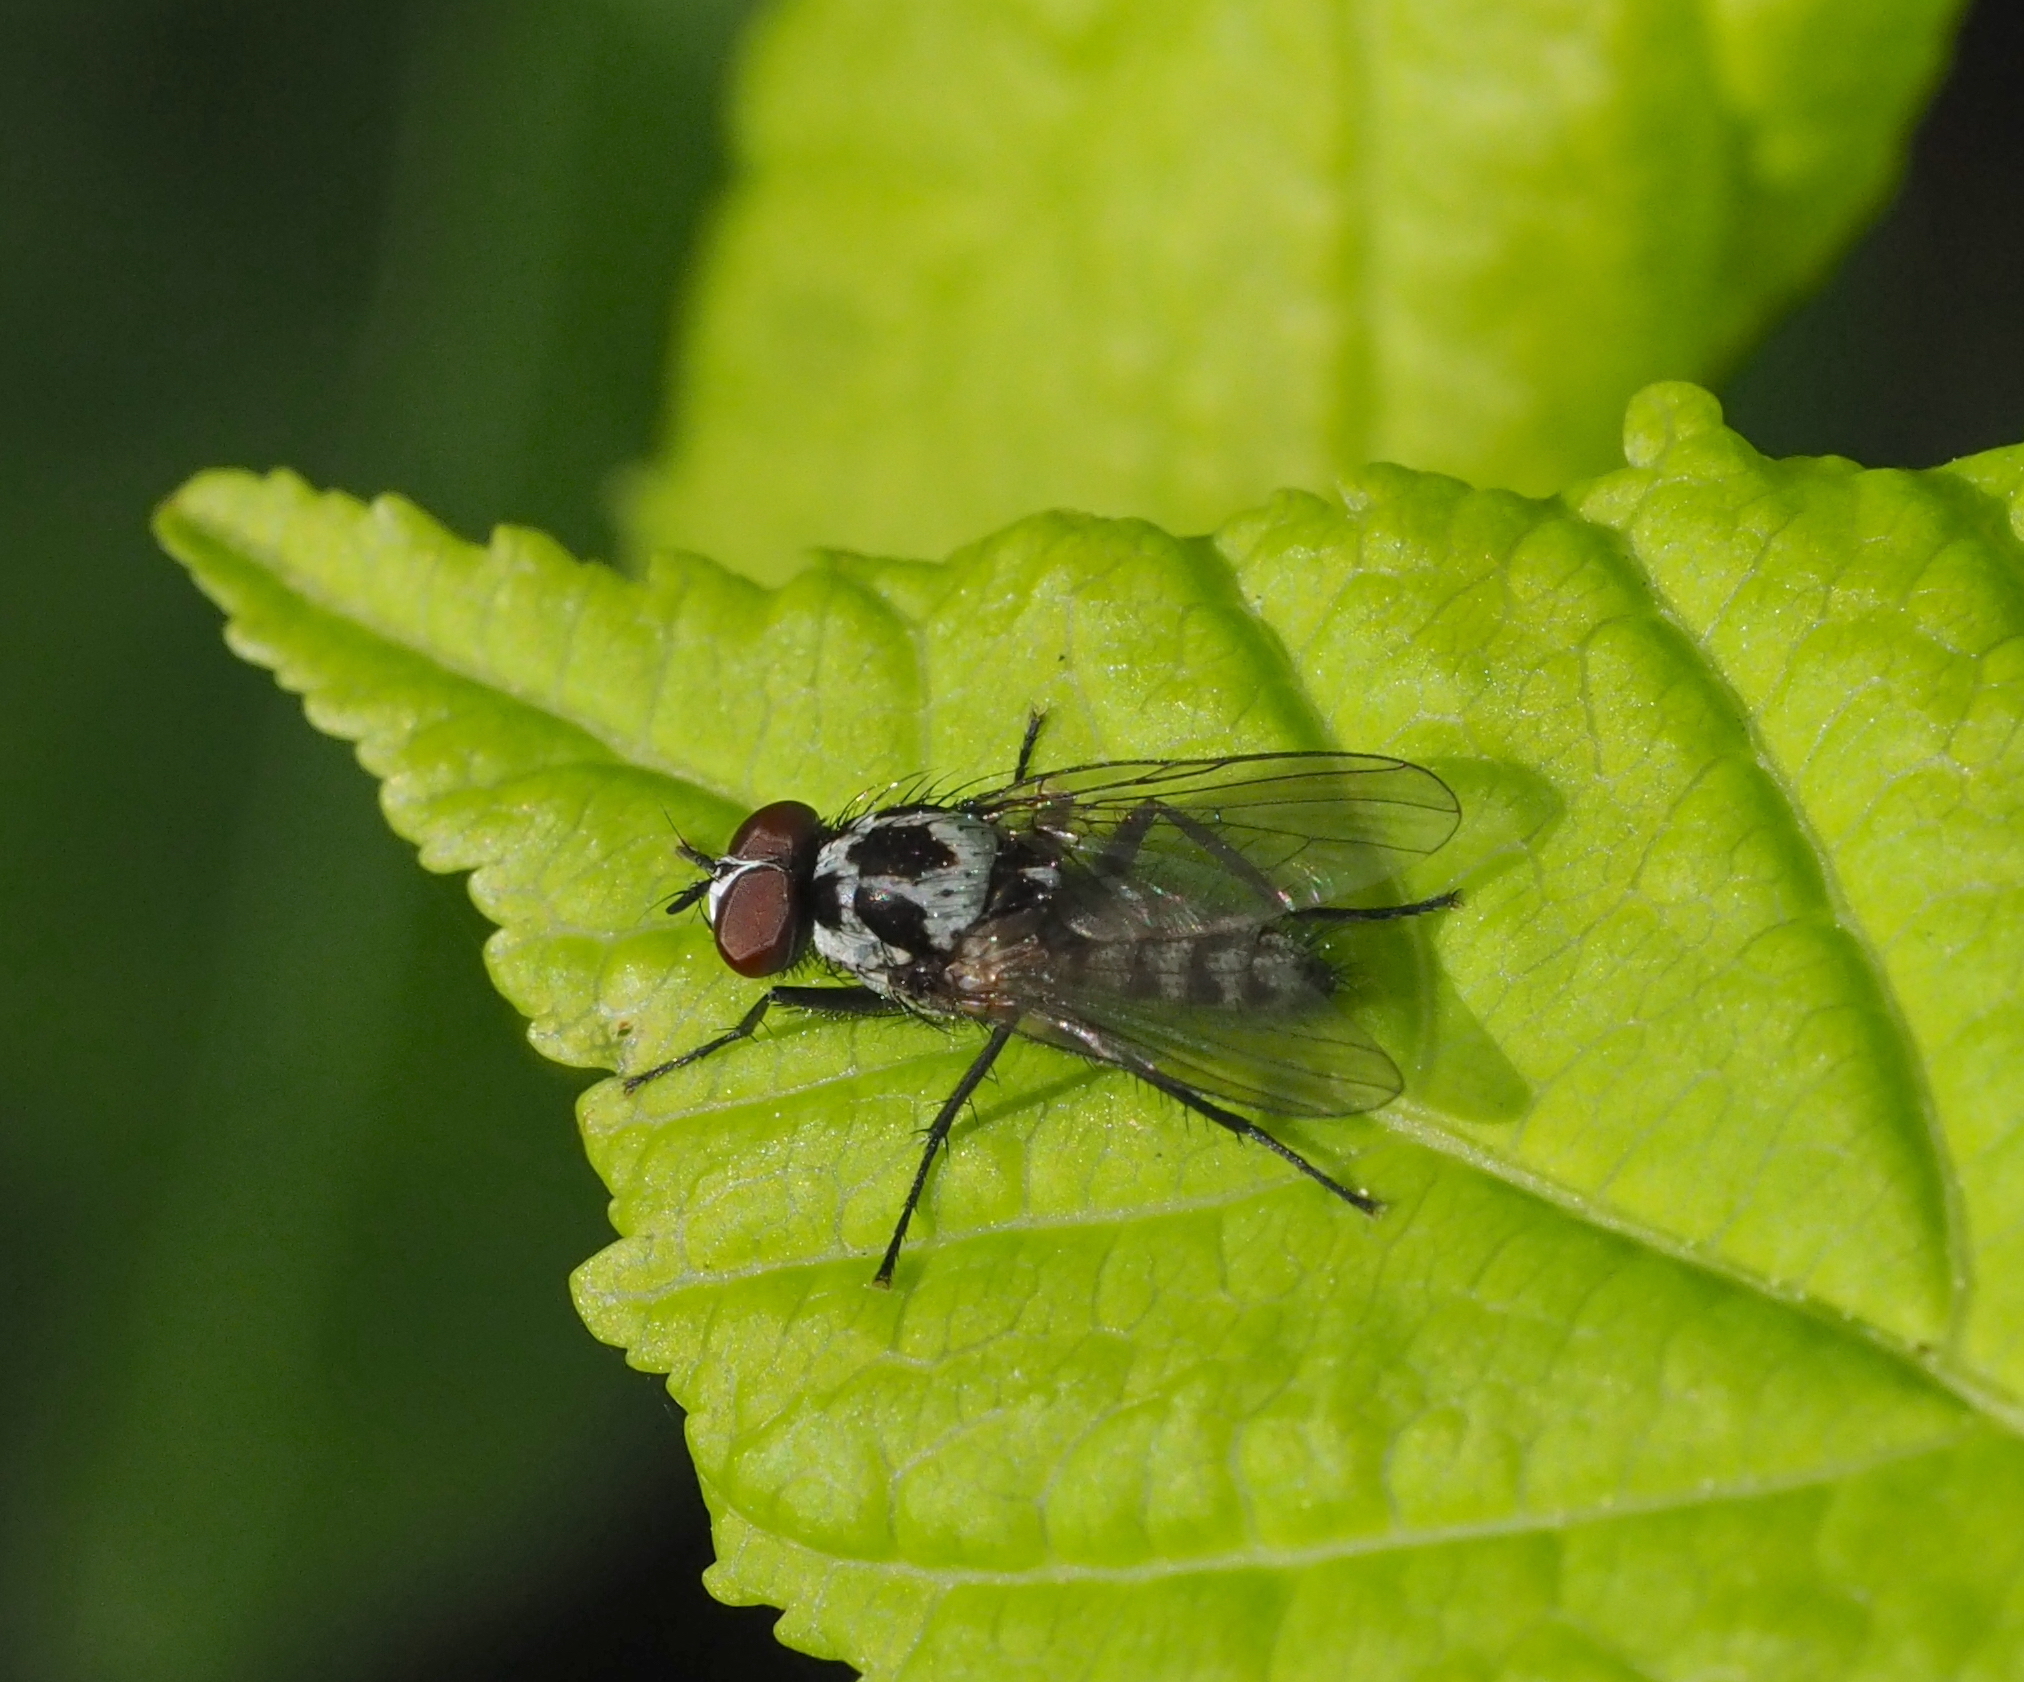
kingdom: Animalia
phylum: Arthropoda
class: Insecta
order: Diptera
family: Anthomyiidae
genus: Anthomyia
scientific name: Anthomyia procellaris
